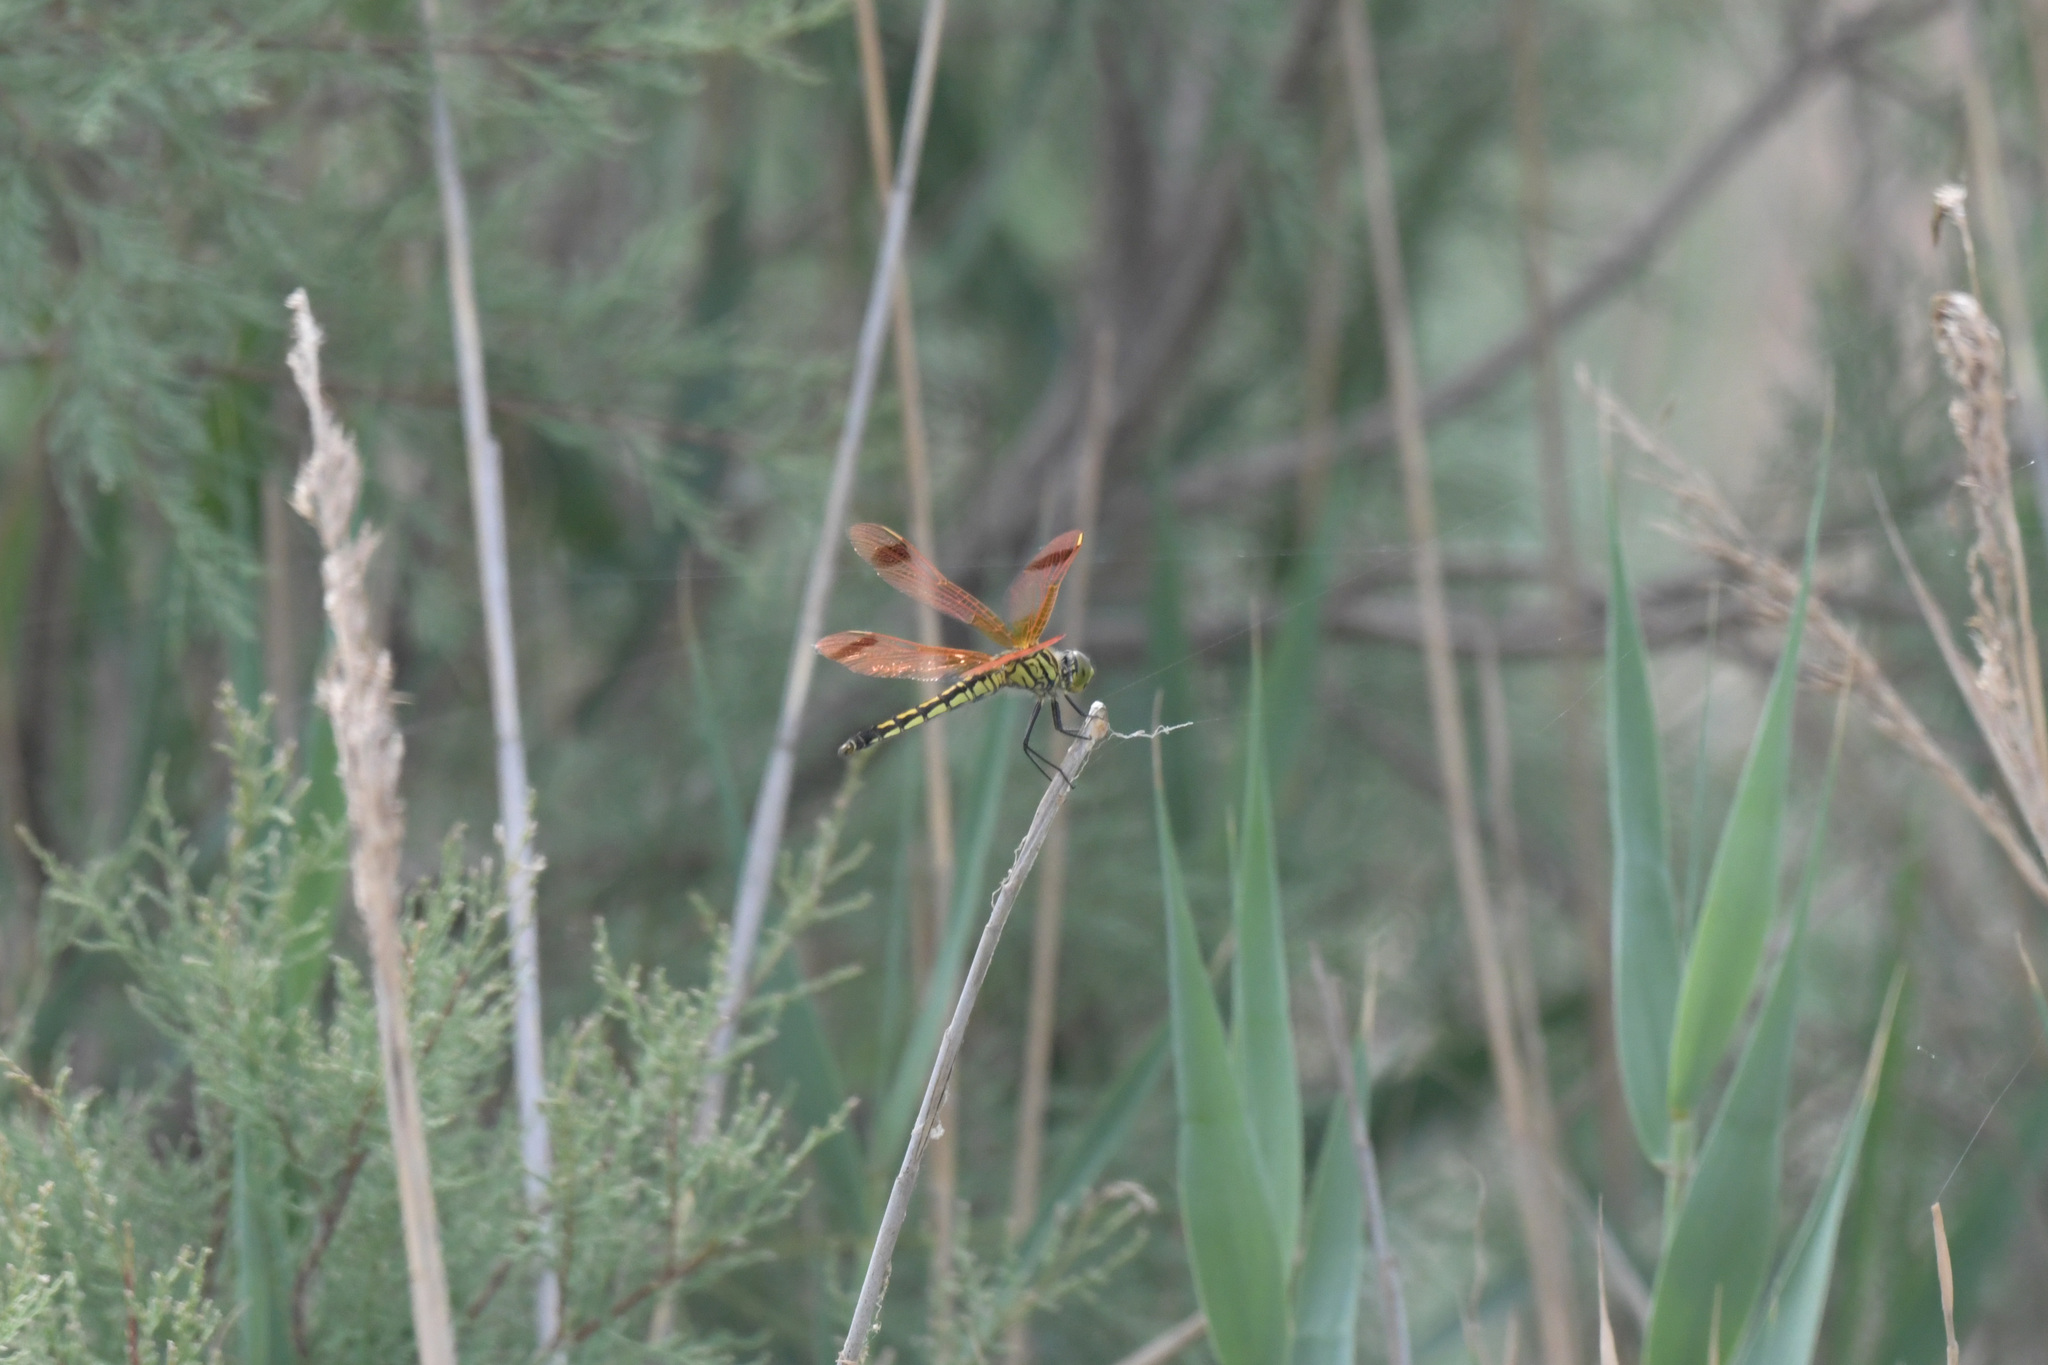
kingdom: Animalia
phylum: Arthropoda
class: Insecta
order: Odonata
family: Libellulidae
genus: Deielia
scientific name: Deielia phaon
